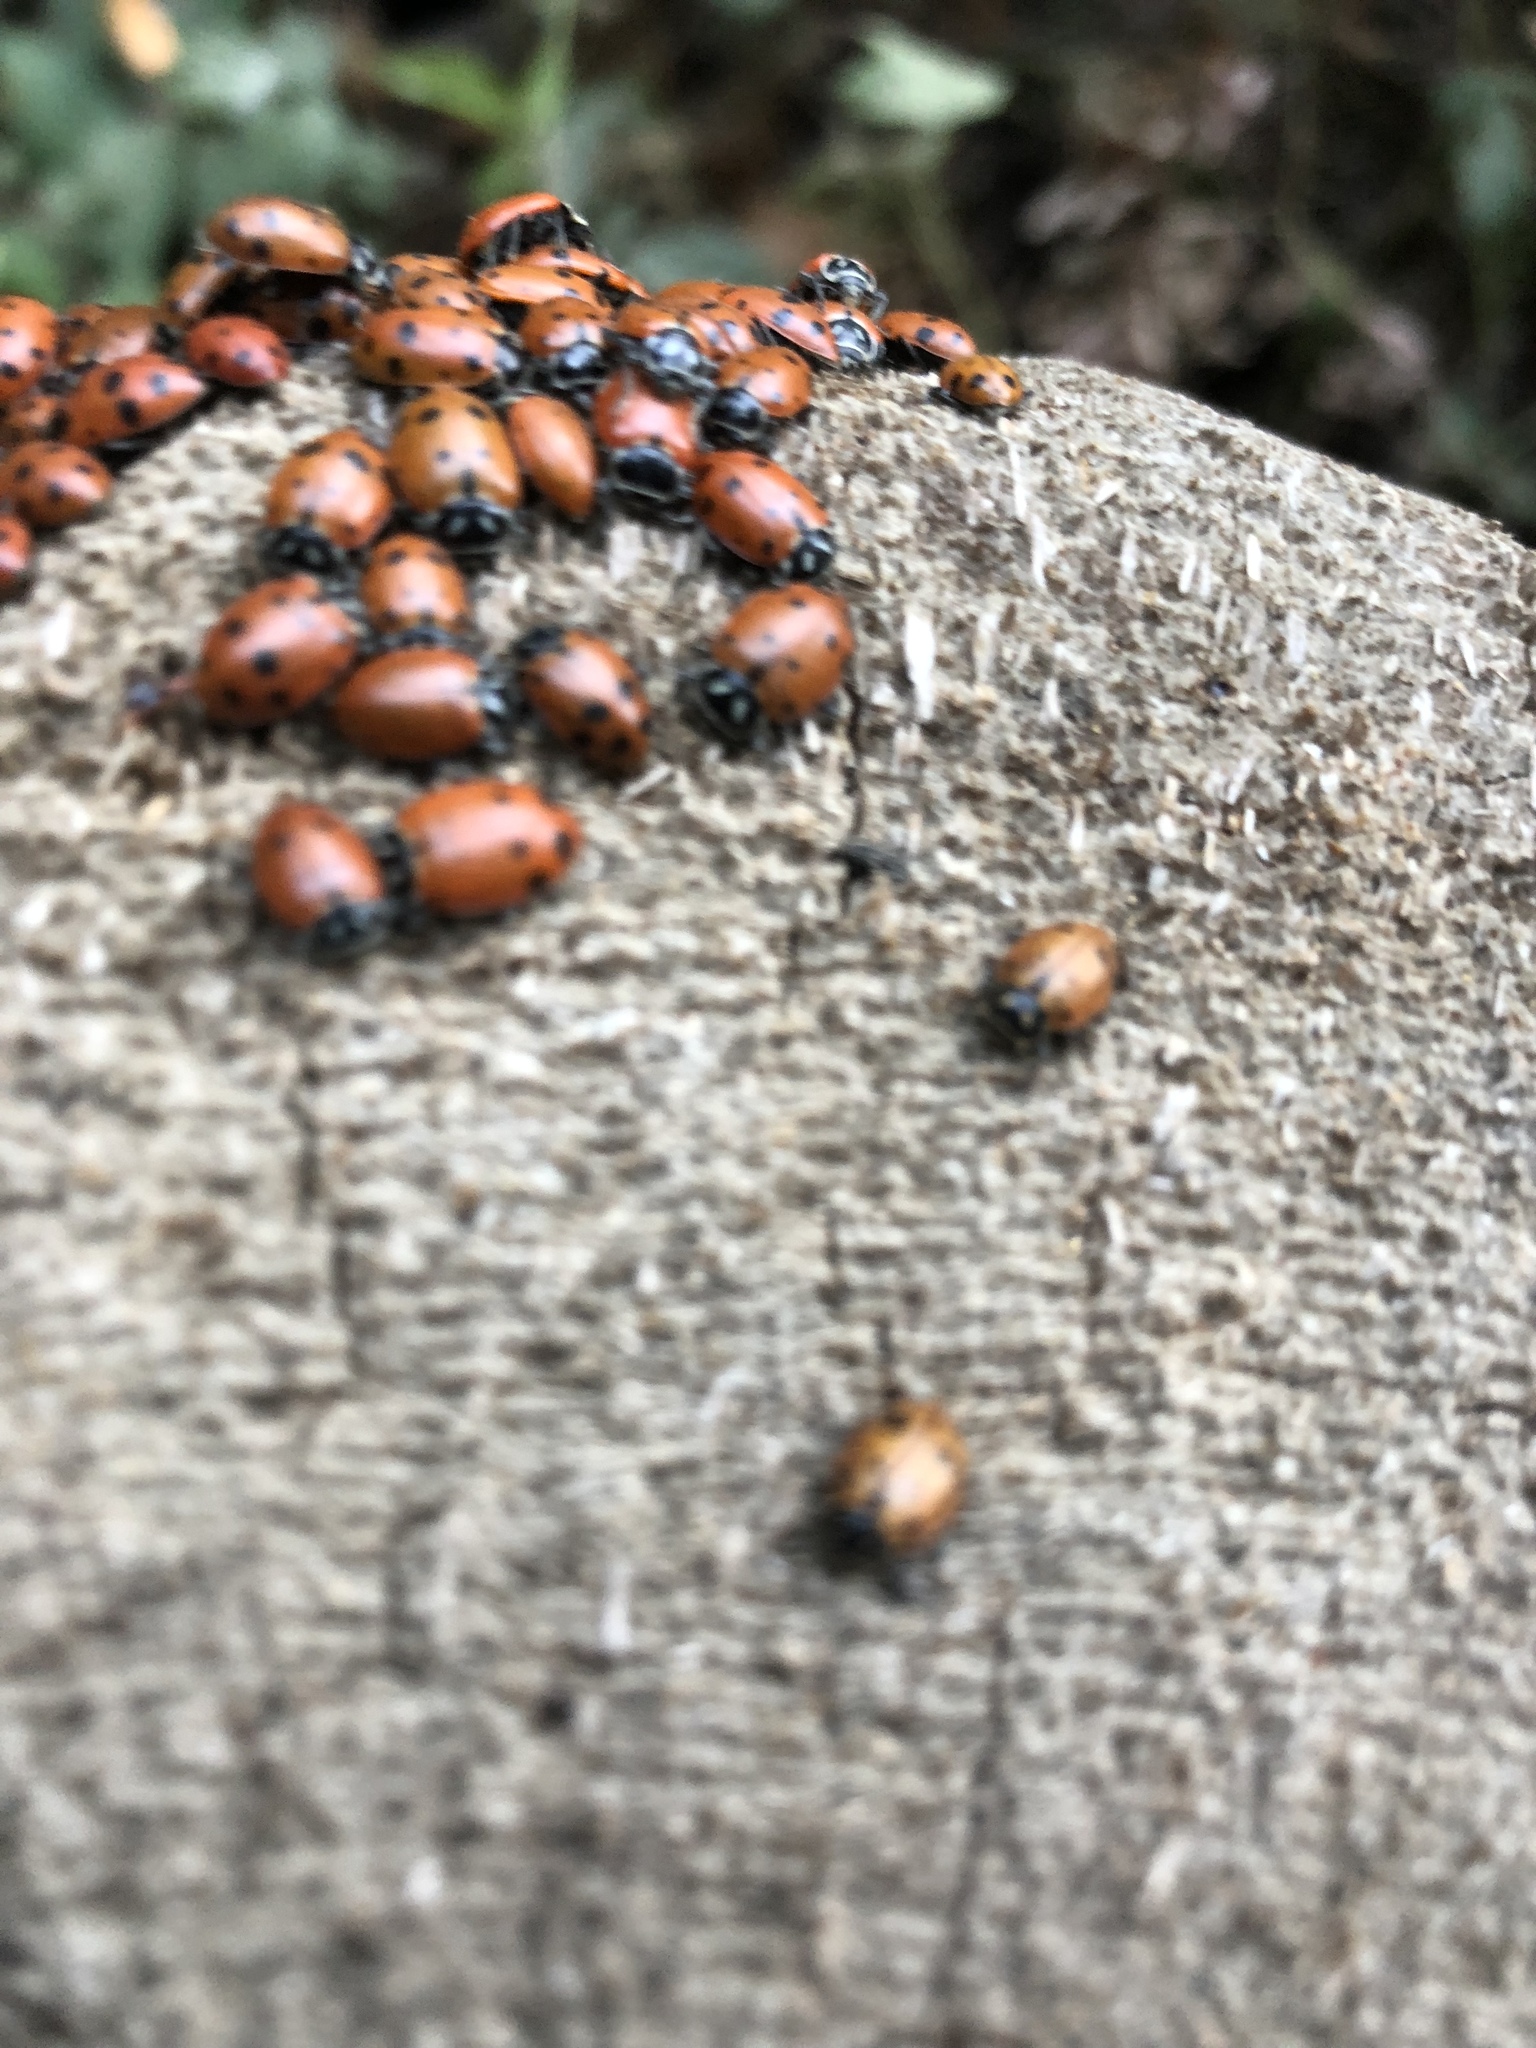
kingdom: Animalia
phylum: Arthropoda
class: Insecta
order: Coleoptera
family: Coccinellidae
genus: Hippodamia
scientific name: Hippodamia convergens
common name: Convergent lady beetle
